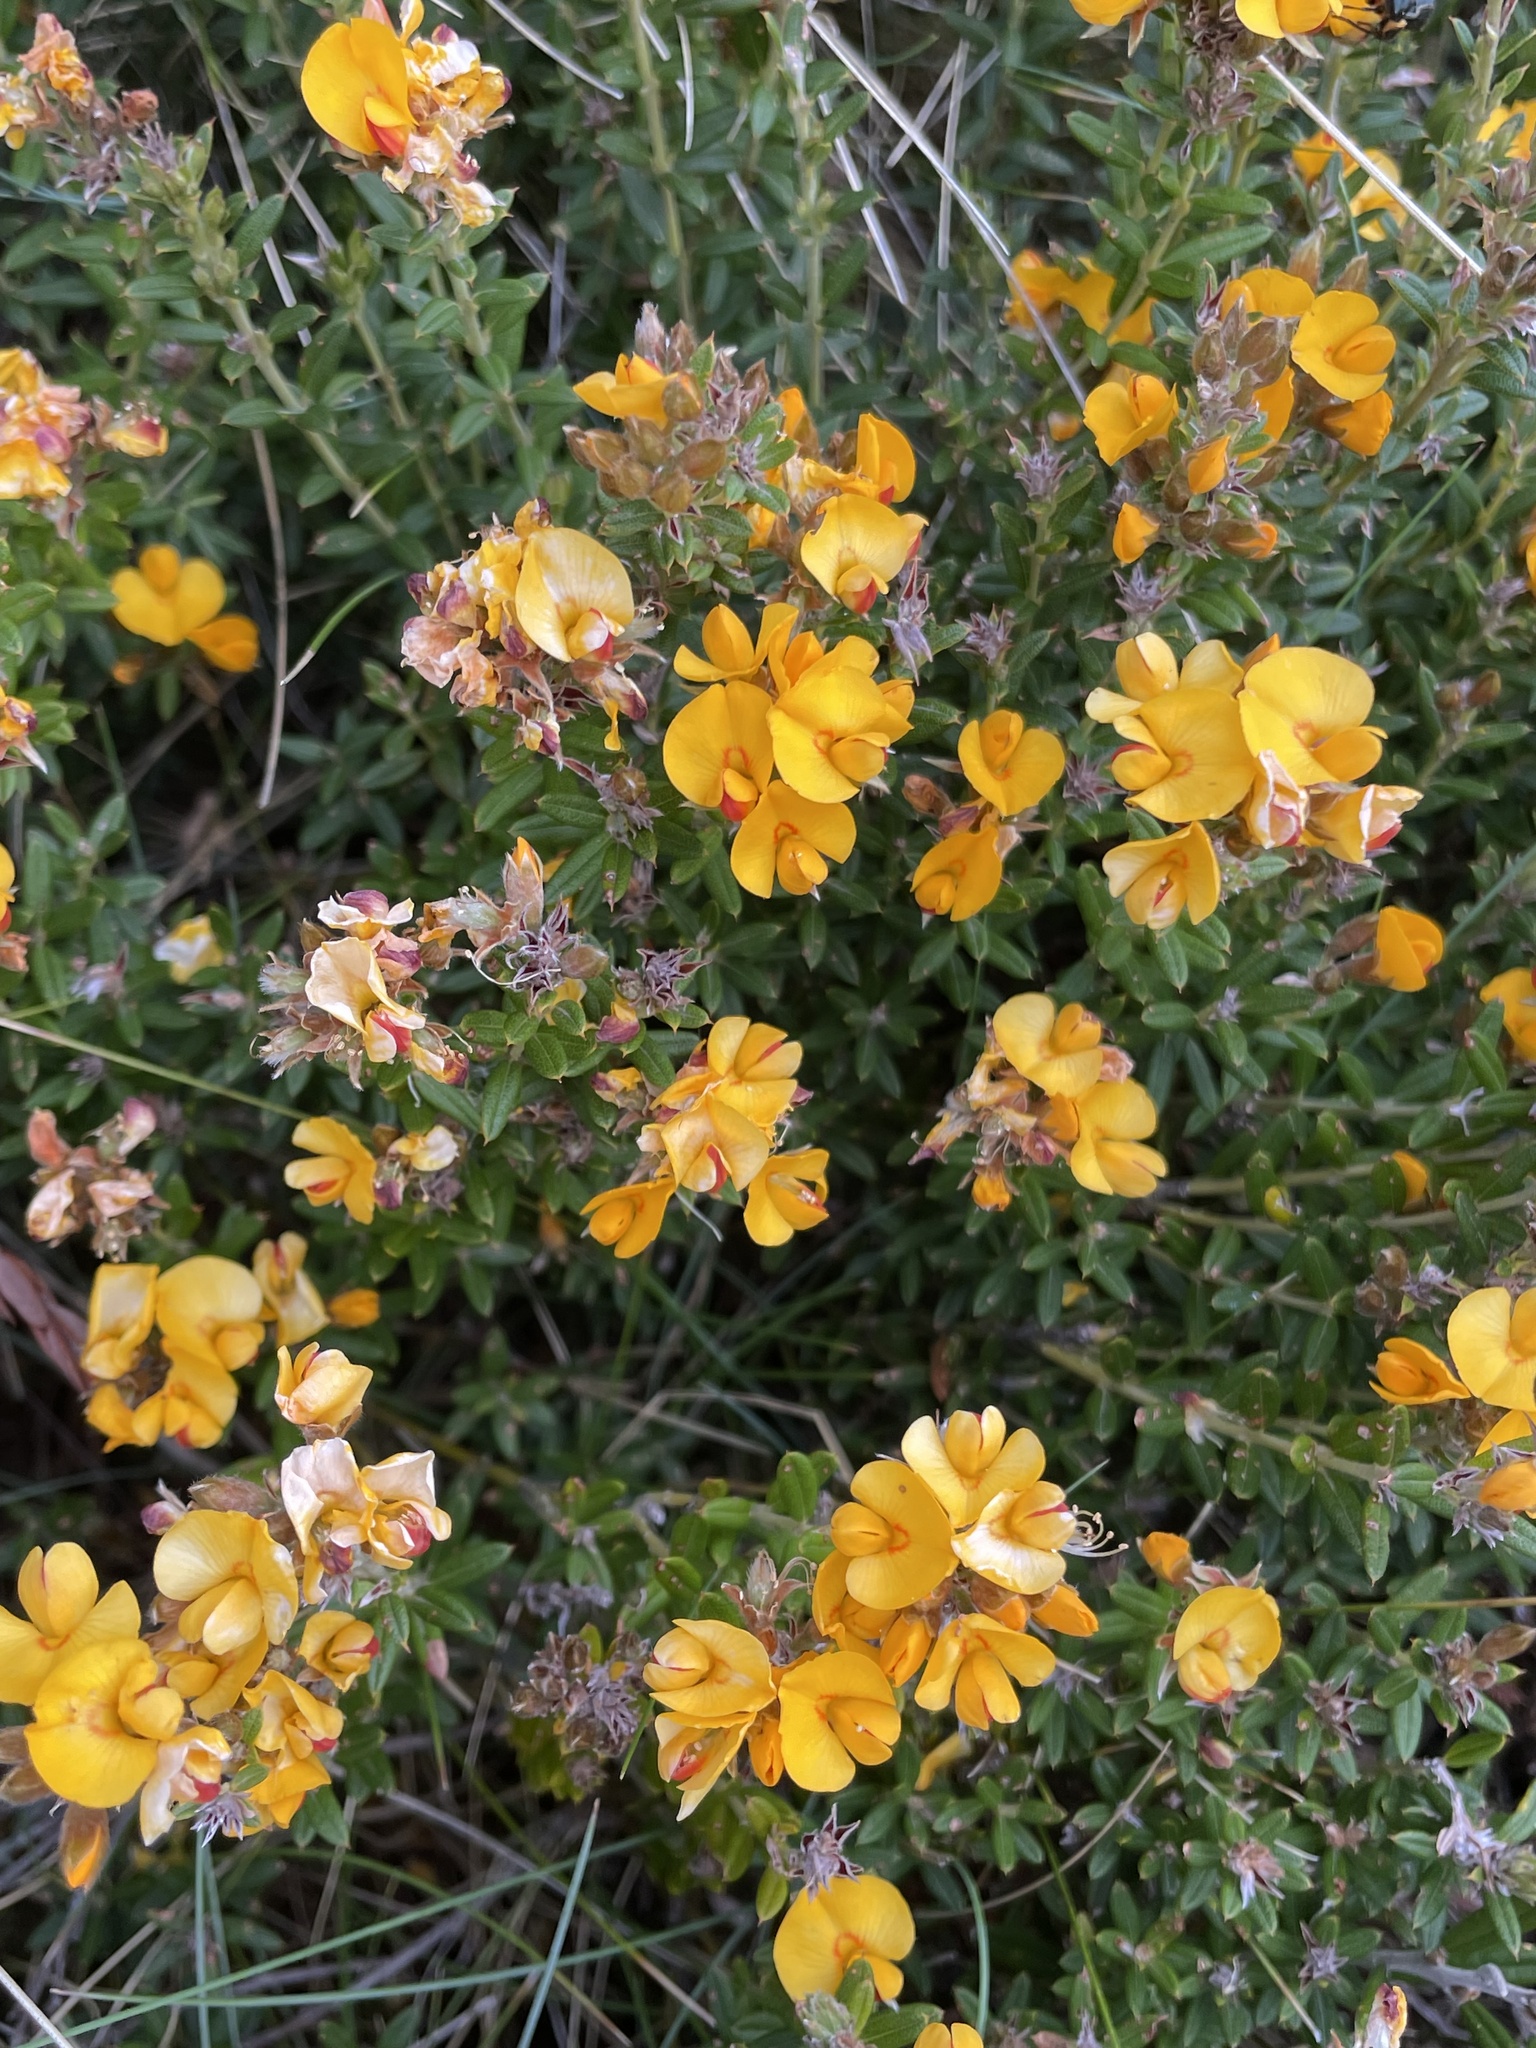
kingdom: Plantae
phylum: Tracheophyta
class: Magnoliopsida
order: Fabales
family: Fabaceae
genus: Oxylobium
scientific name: Oxylobium ellipticum
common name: Golden shaggy-pea
